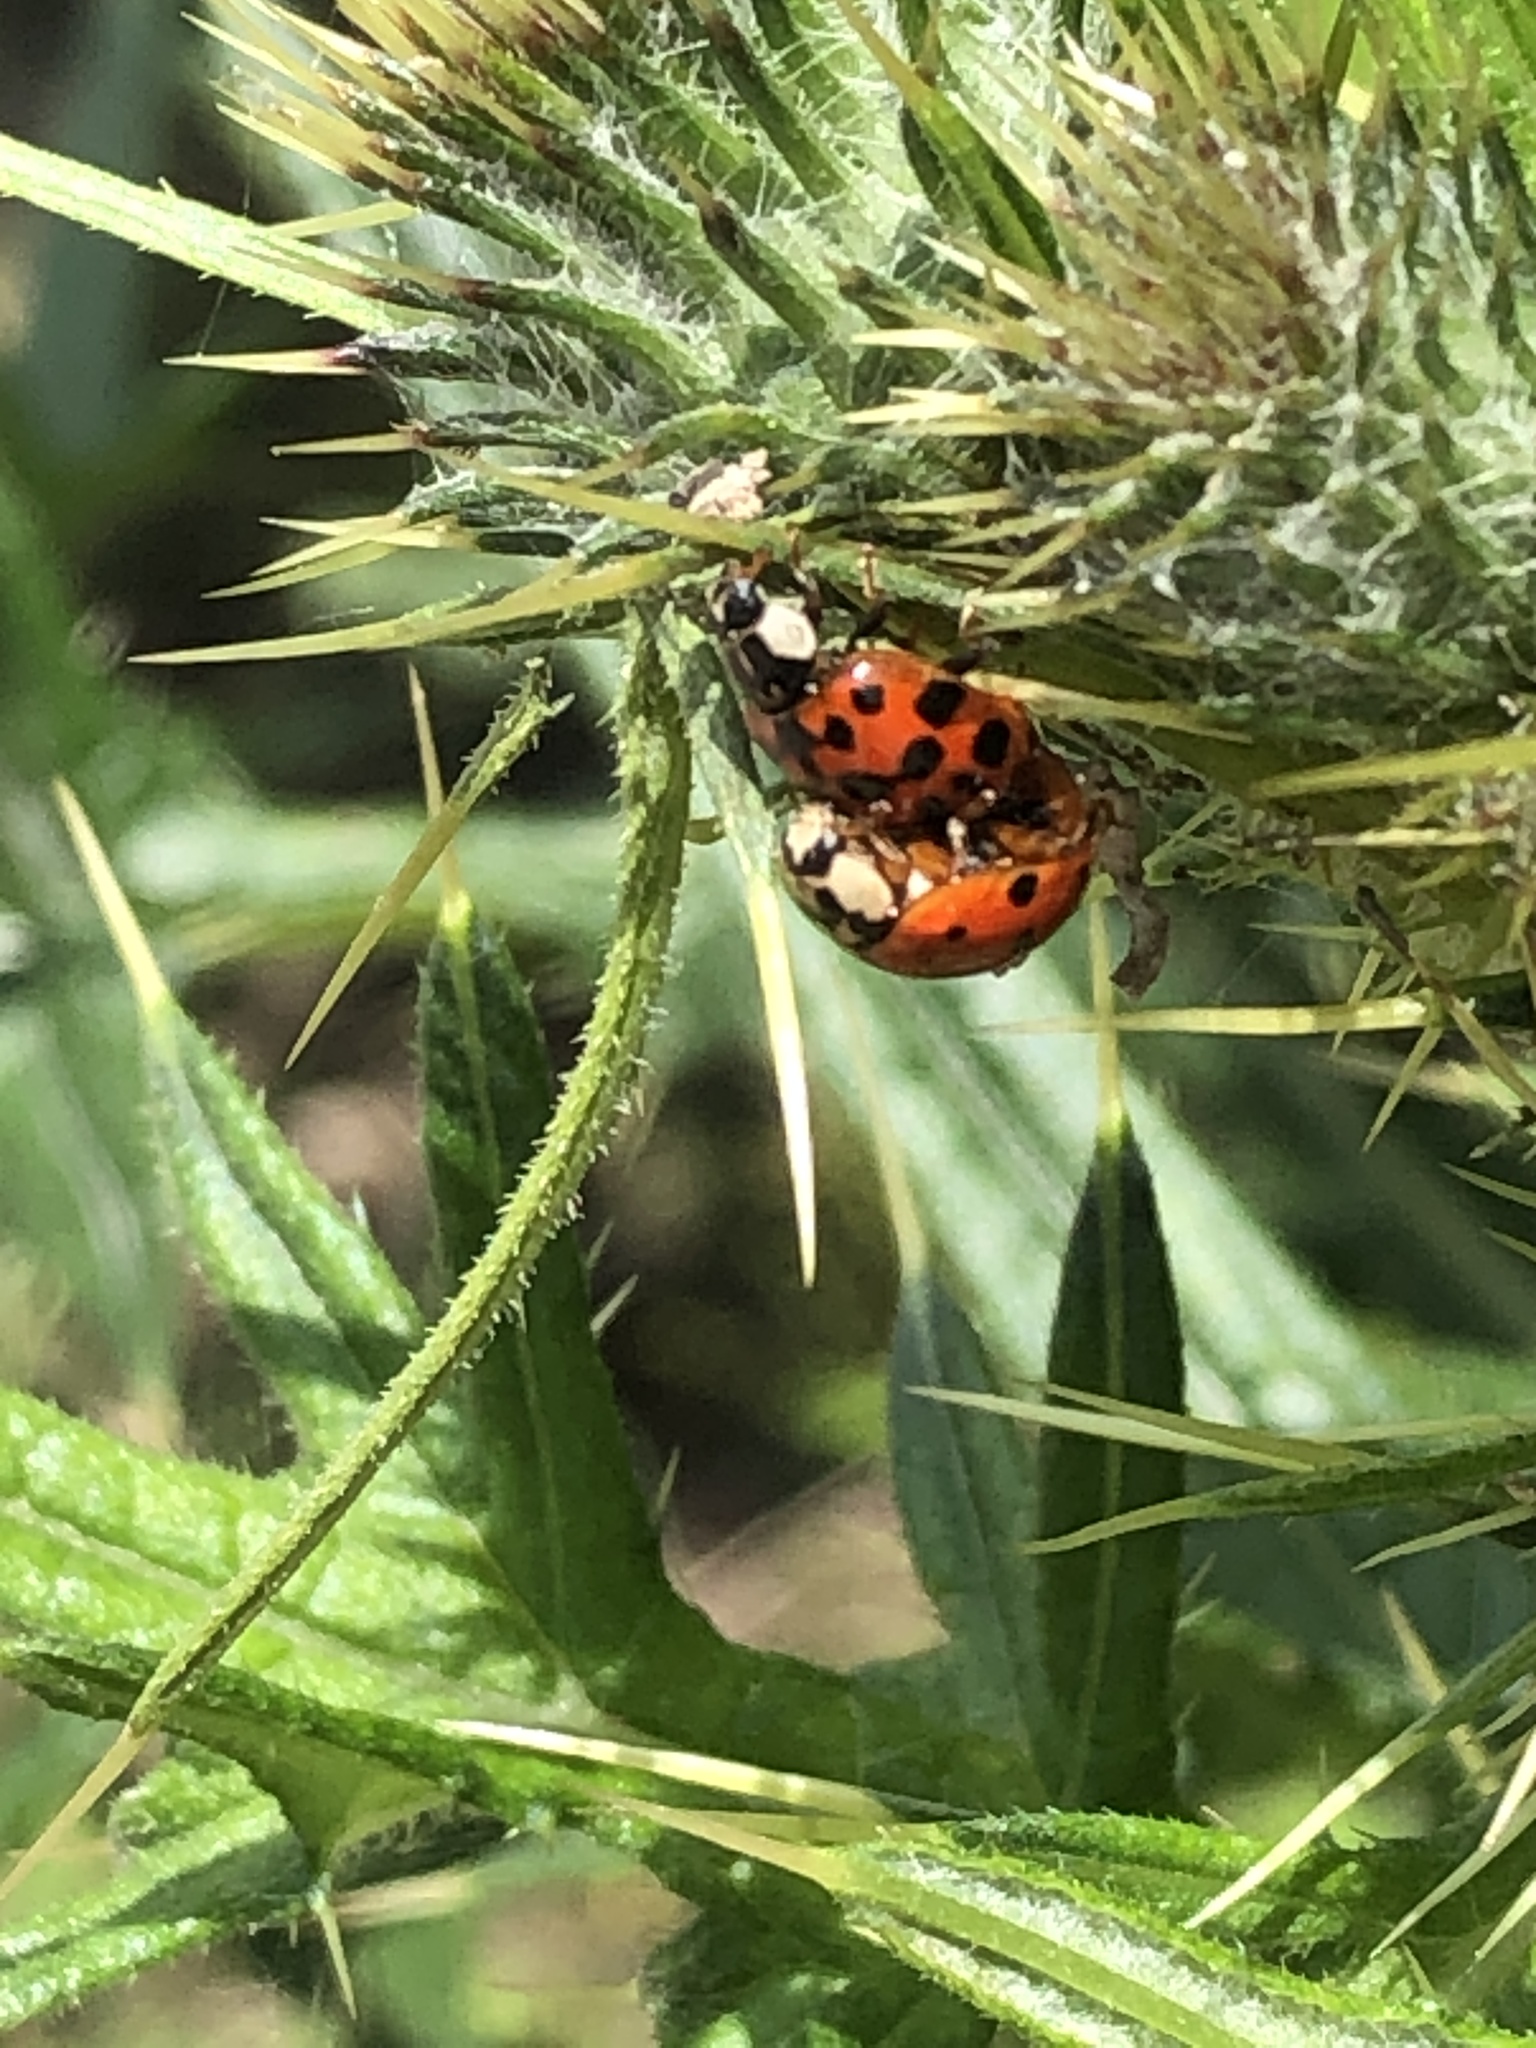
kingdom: Animalia
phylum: Arthropoda
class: Insecta
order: Coleoptera
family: Coccinellidae
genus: Harmonia
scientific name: Harmonia axyridis
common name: Harlequin ladybird
